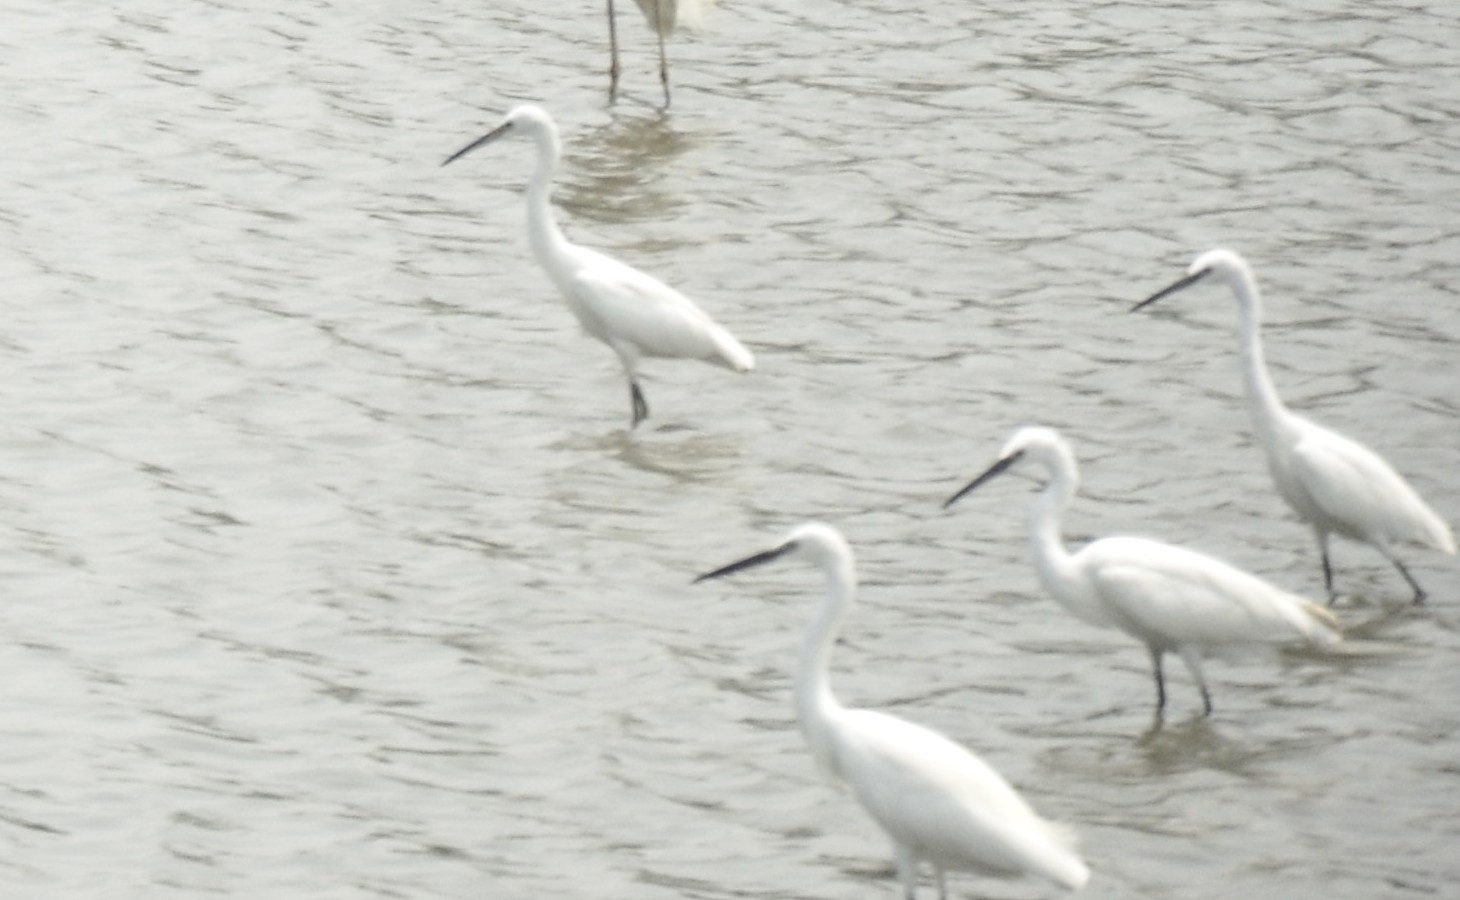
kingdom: Animalia
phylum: Chordata
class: Aves
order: Pelecaniformes
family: Ardeidae
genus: Egretta
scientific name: Egretta garzetta
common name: Little egret
